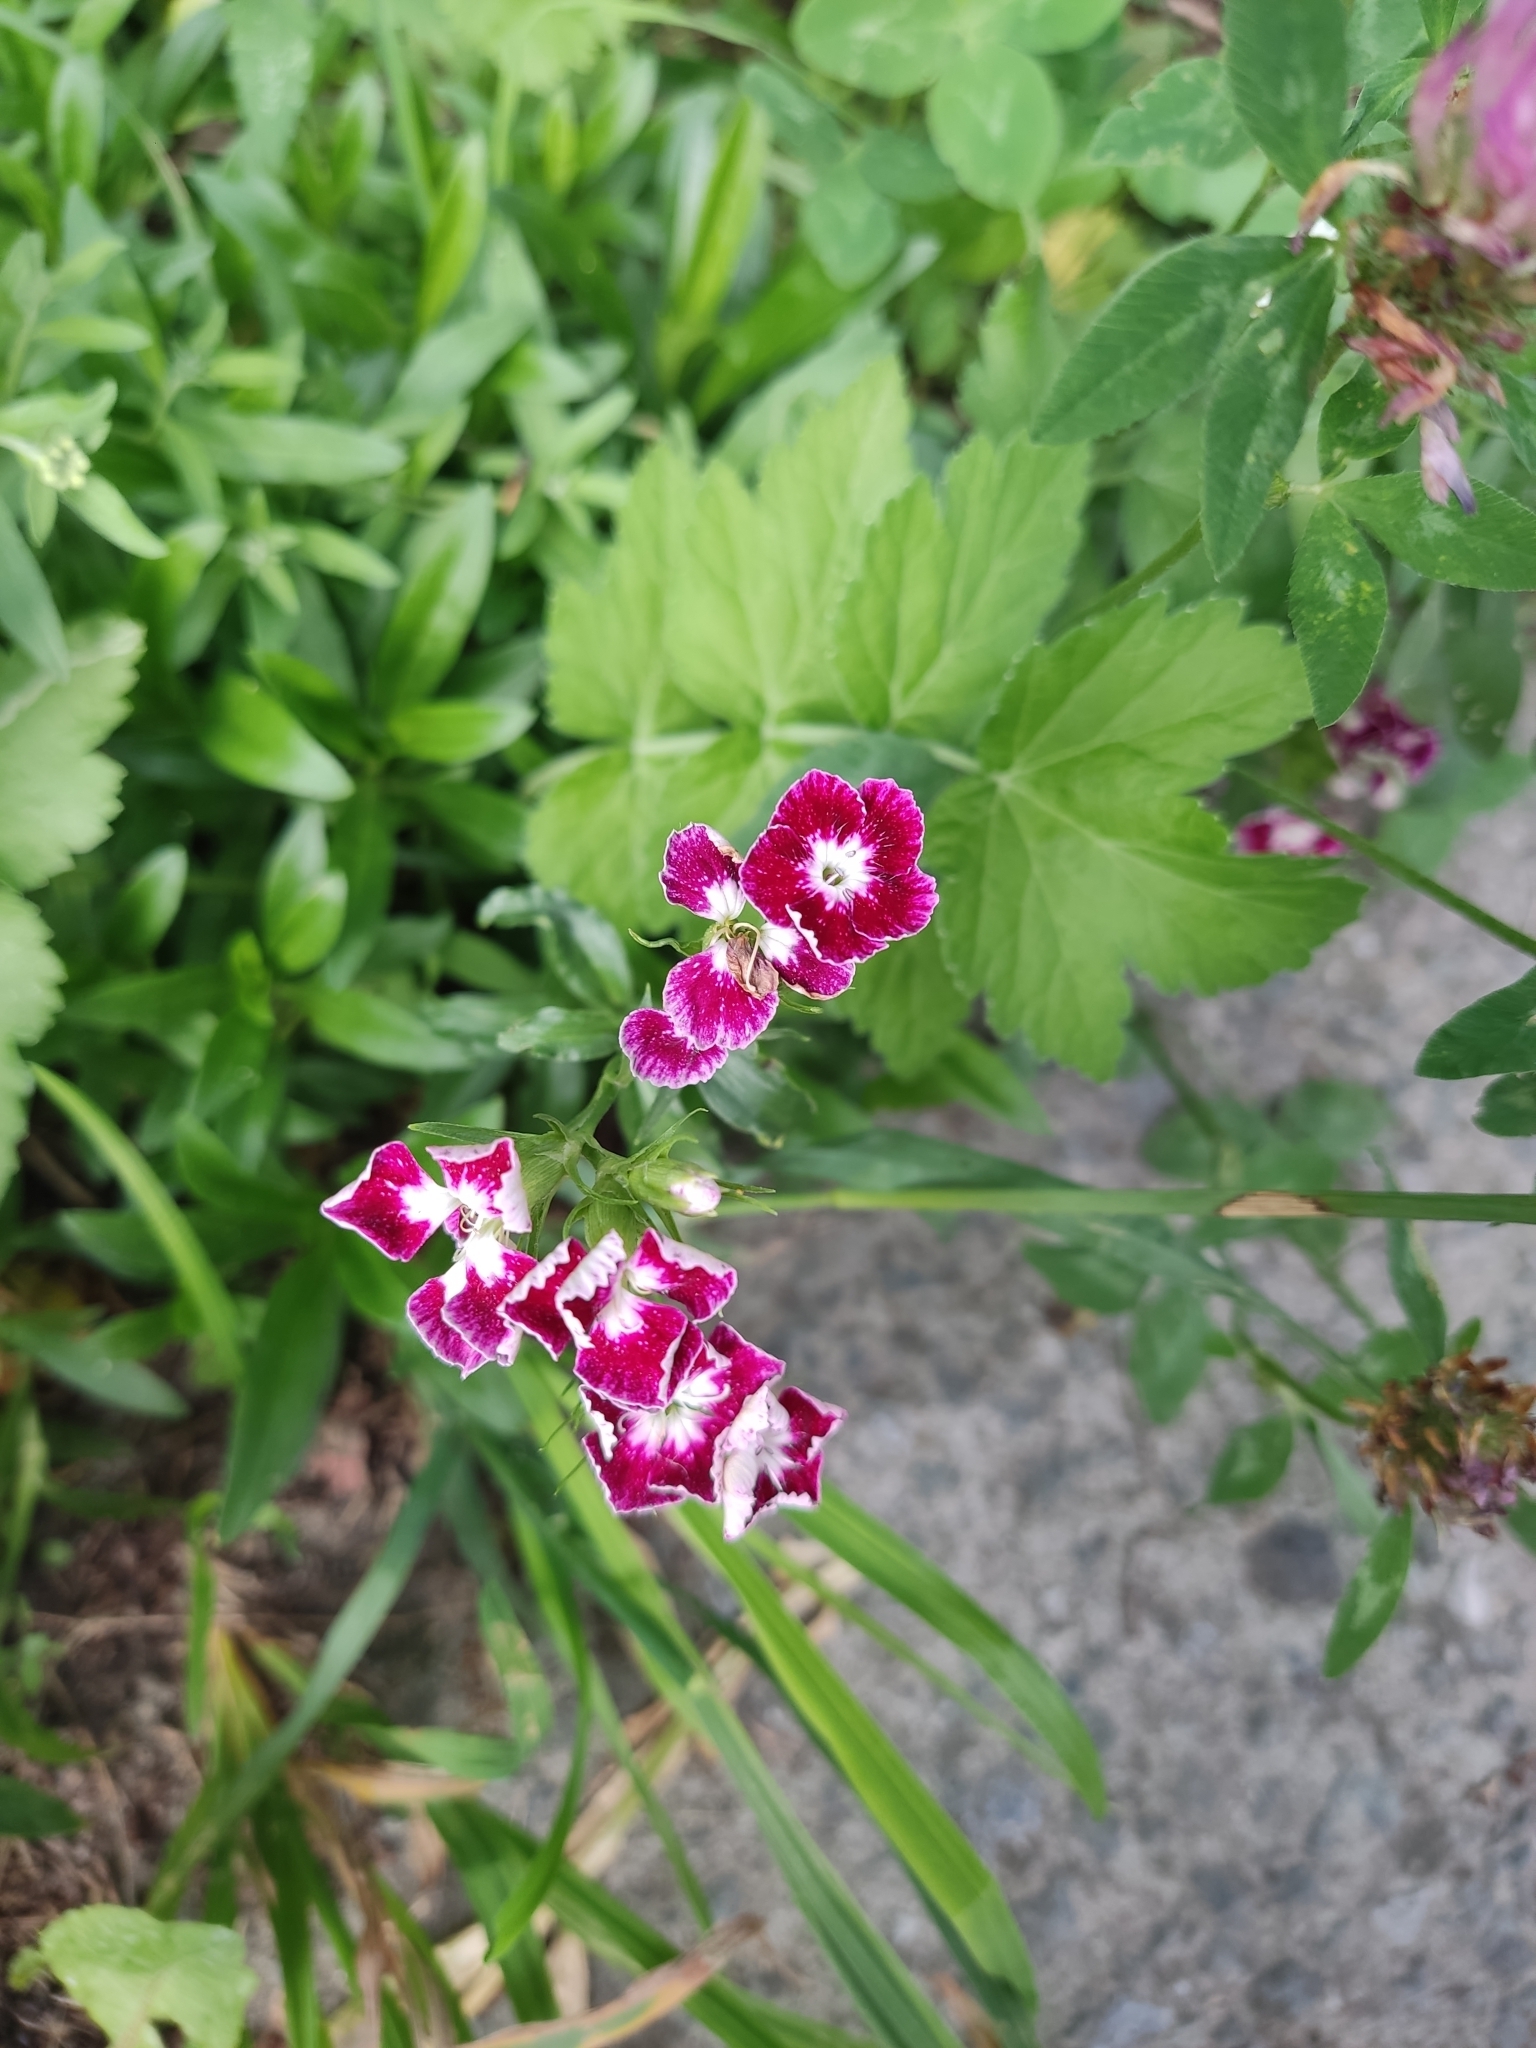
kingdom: Plantae
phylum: Tracheophyta
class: Magnoliopsida
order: Caryophyllales
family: Caryophyllaceae
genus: Dianthus
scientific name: Dianthus barbatus
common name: Sweet-william
